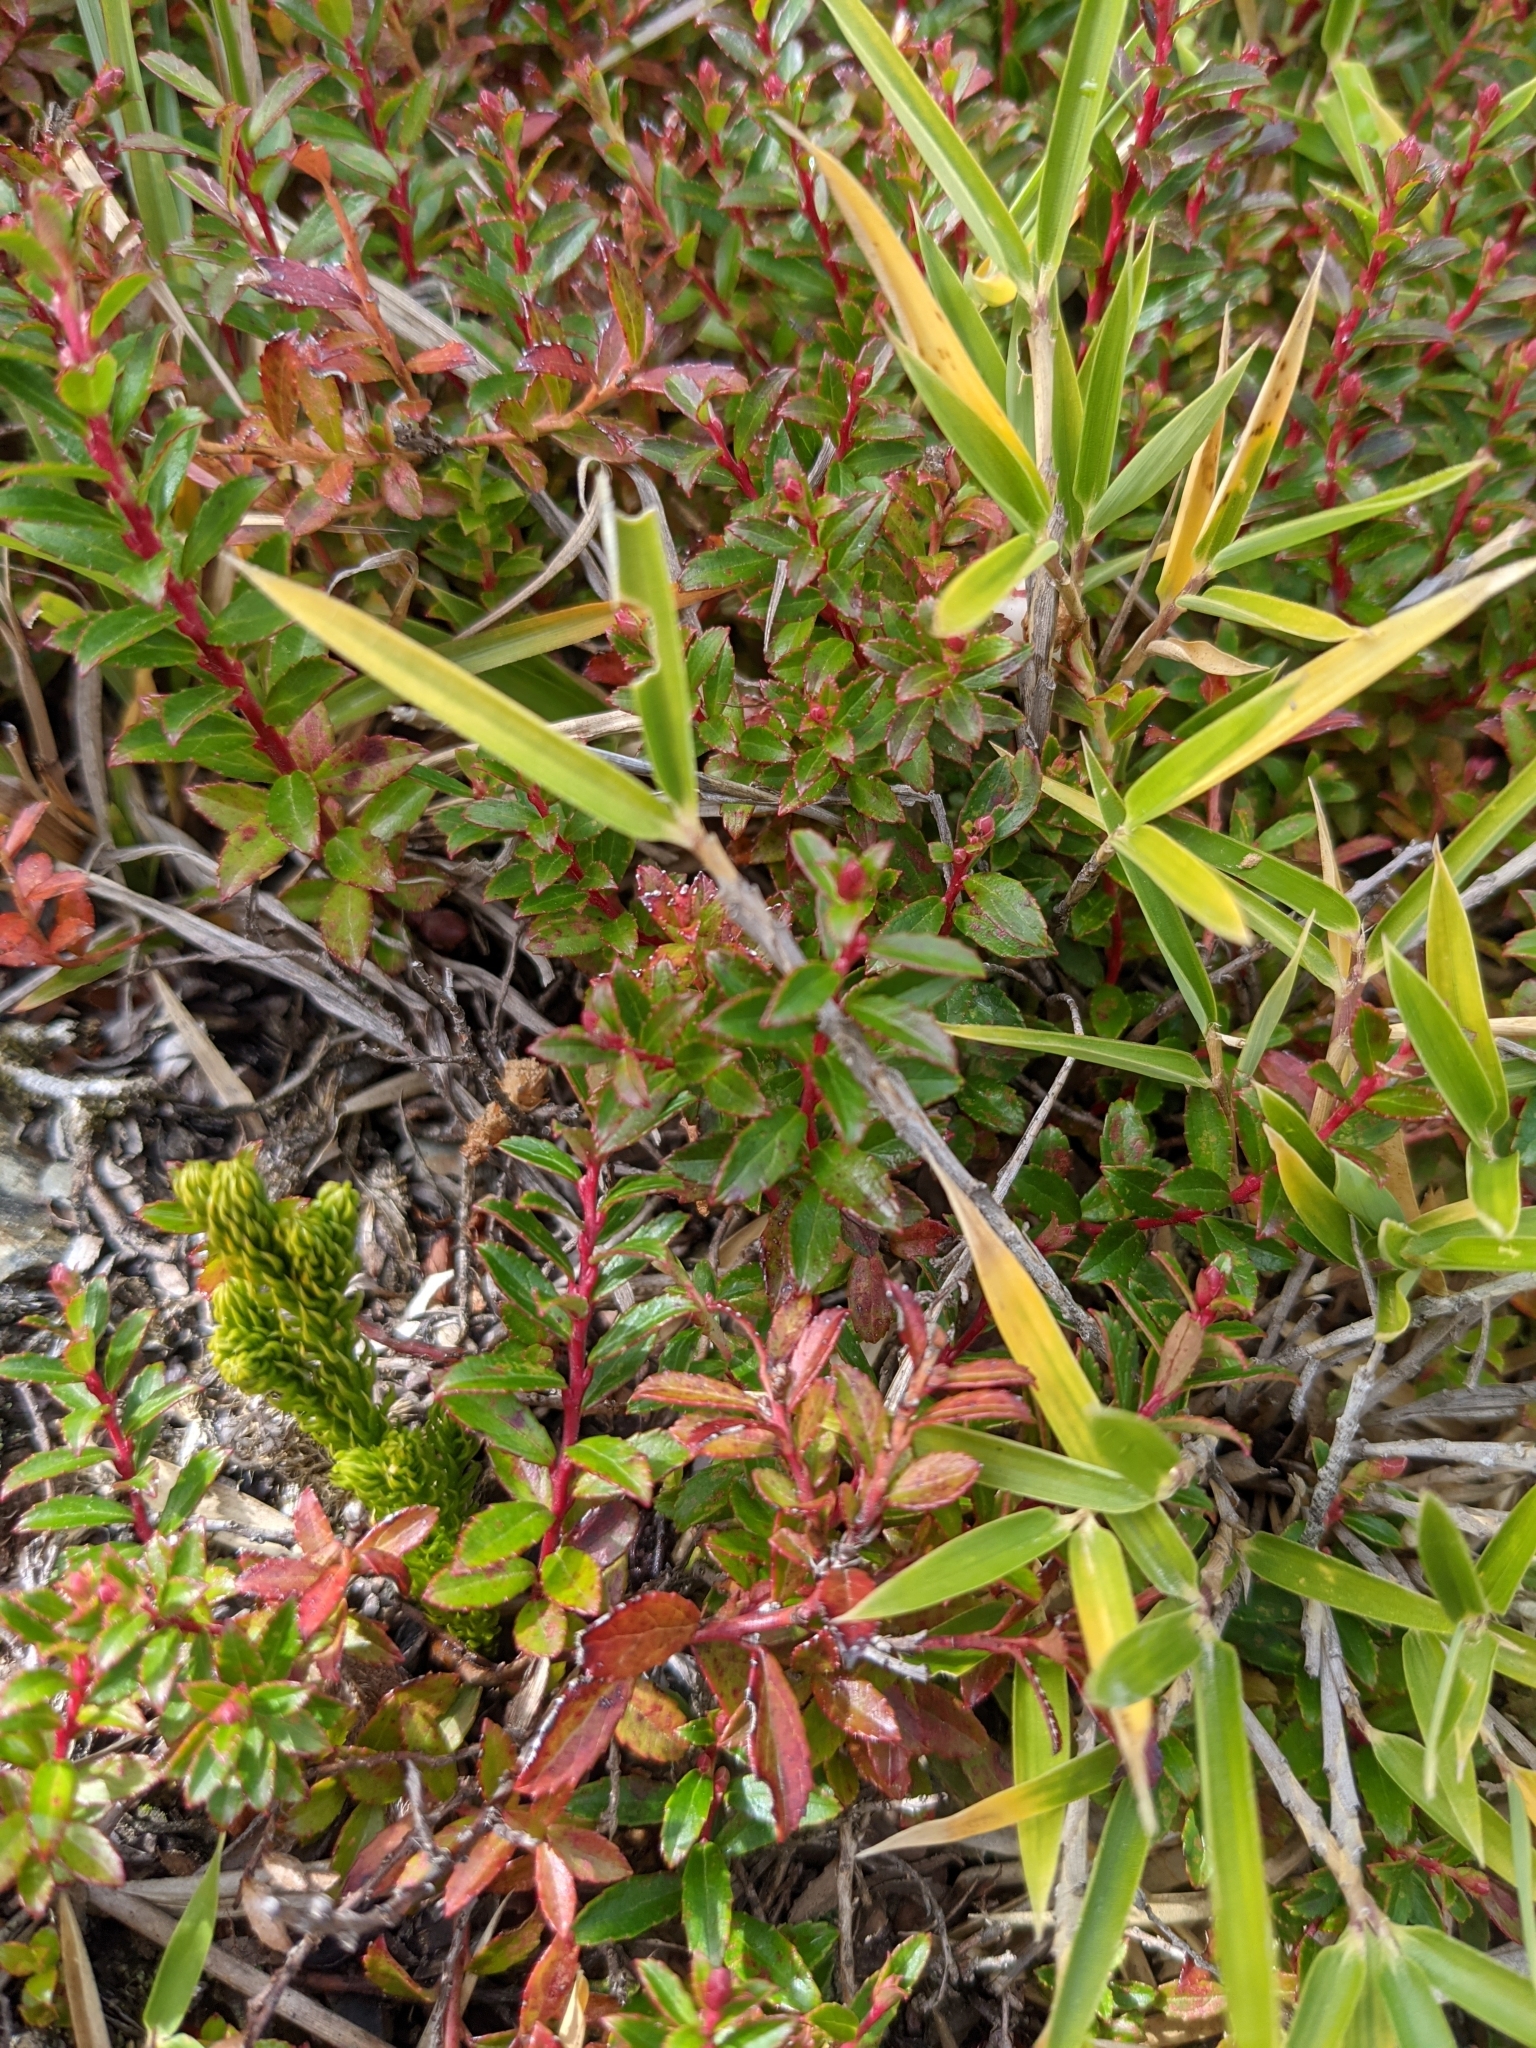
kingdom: Plantae
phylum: Tracheophyta
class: Magnoliopsida
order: Ericales
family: Ericaceae
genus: Gaultheria
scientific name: Gaultheria borneensis
